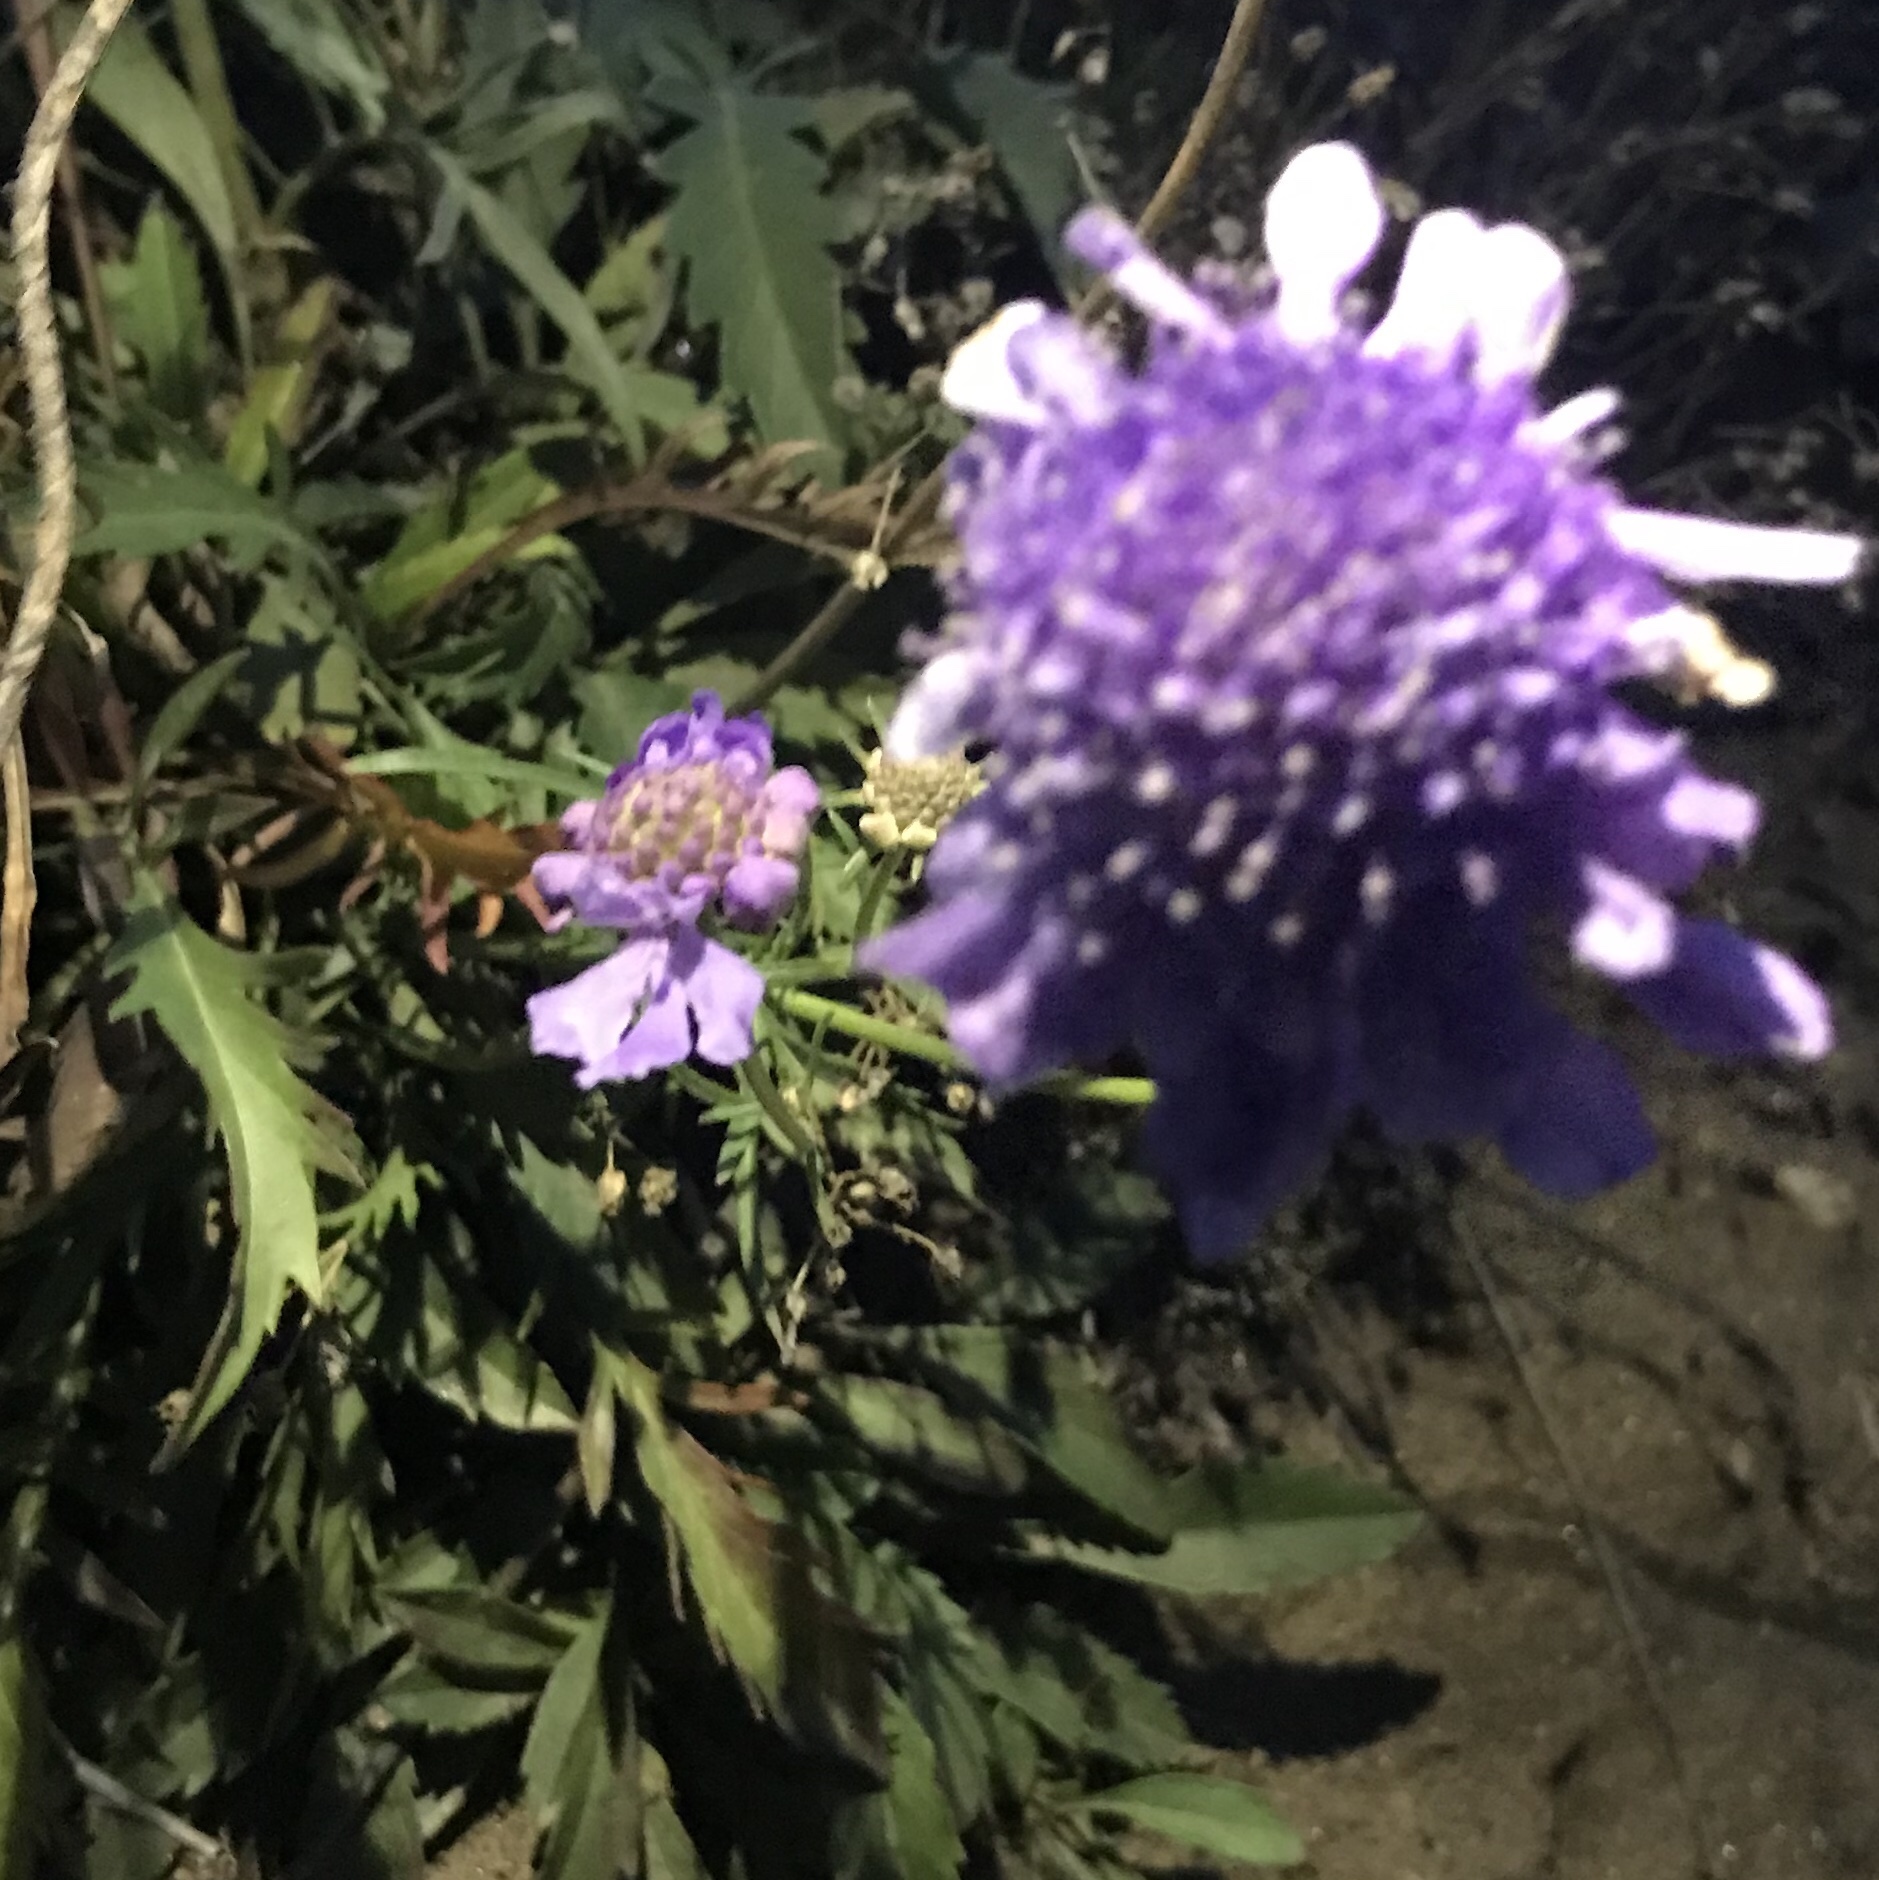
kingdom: Plantae
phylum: Tracheophyta
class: Magnoliopsida
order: Dipsacales
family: Caprifoliaceae
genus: Scabiosa
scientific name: Scabiosa comosa
